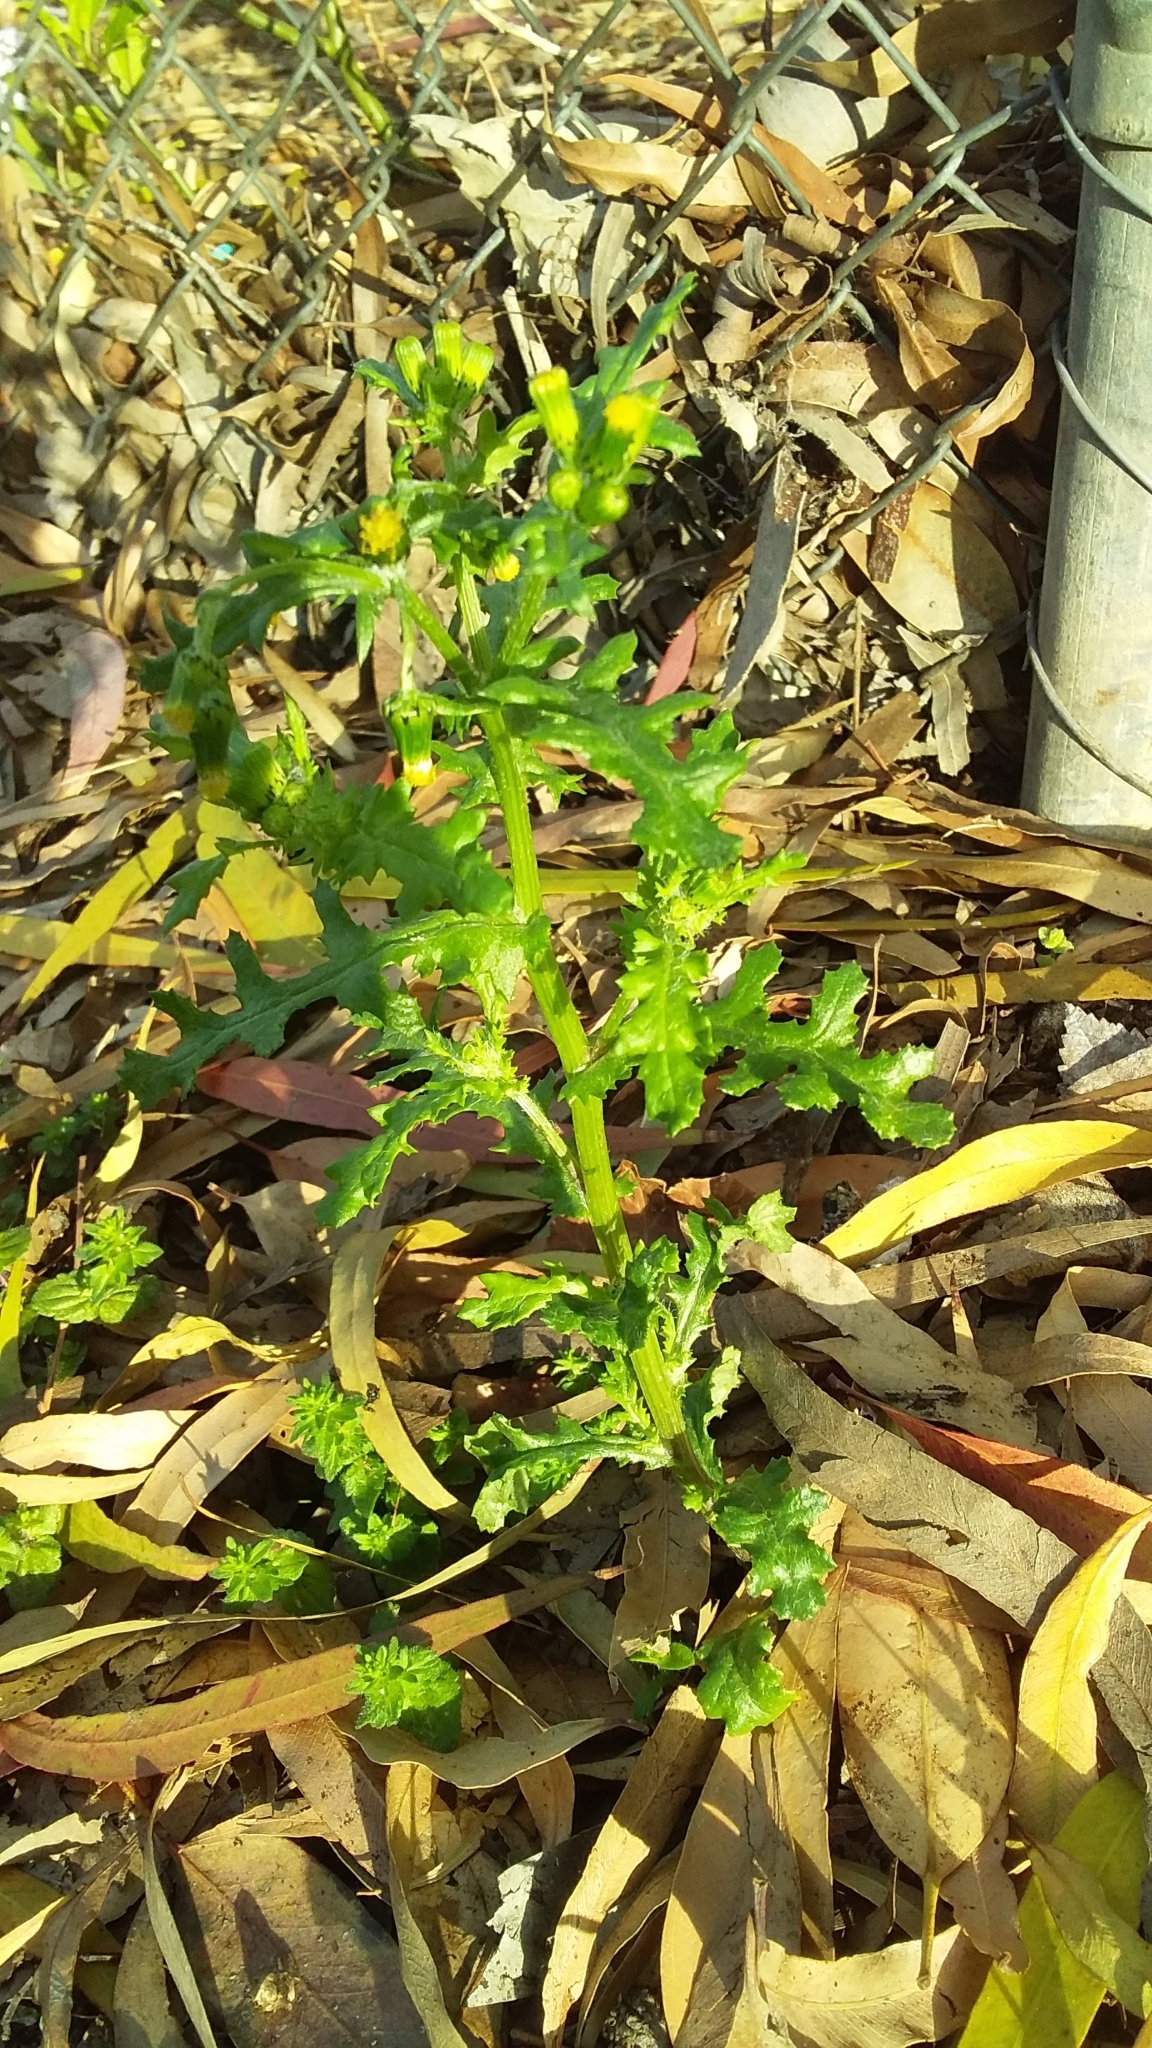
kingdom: Plantae
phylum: Tracheophyta
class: Magnoliopsida
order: Asterales
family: Asteraceae
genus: Senecio
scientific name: Senecio vulgaris
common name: Old-man-in-the-spring
